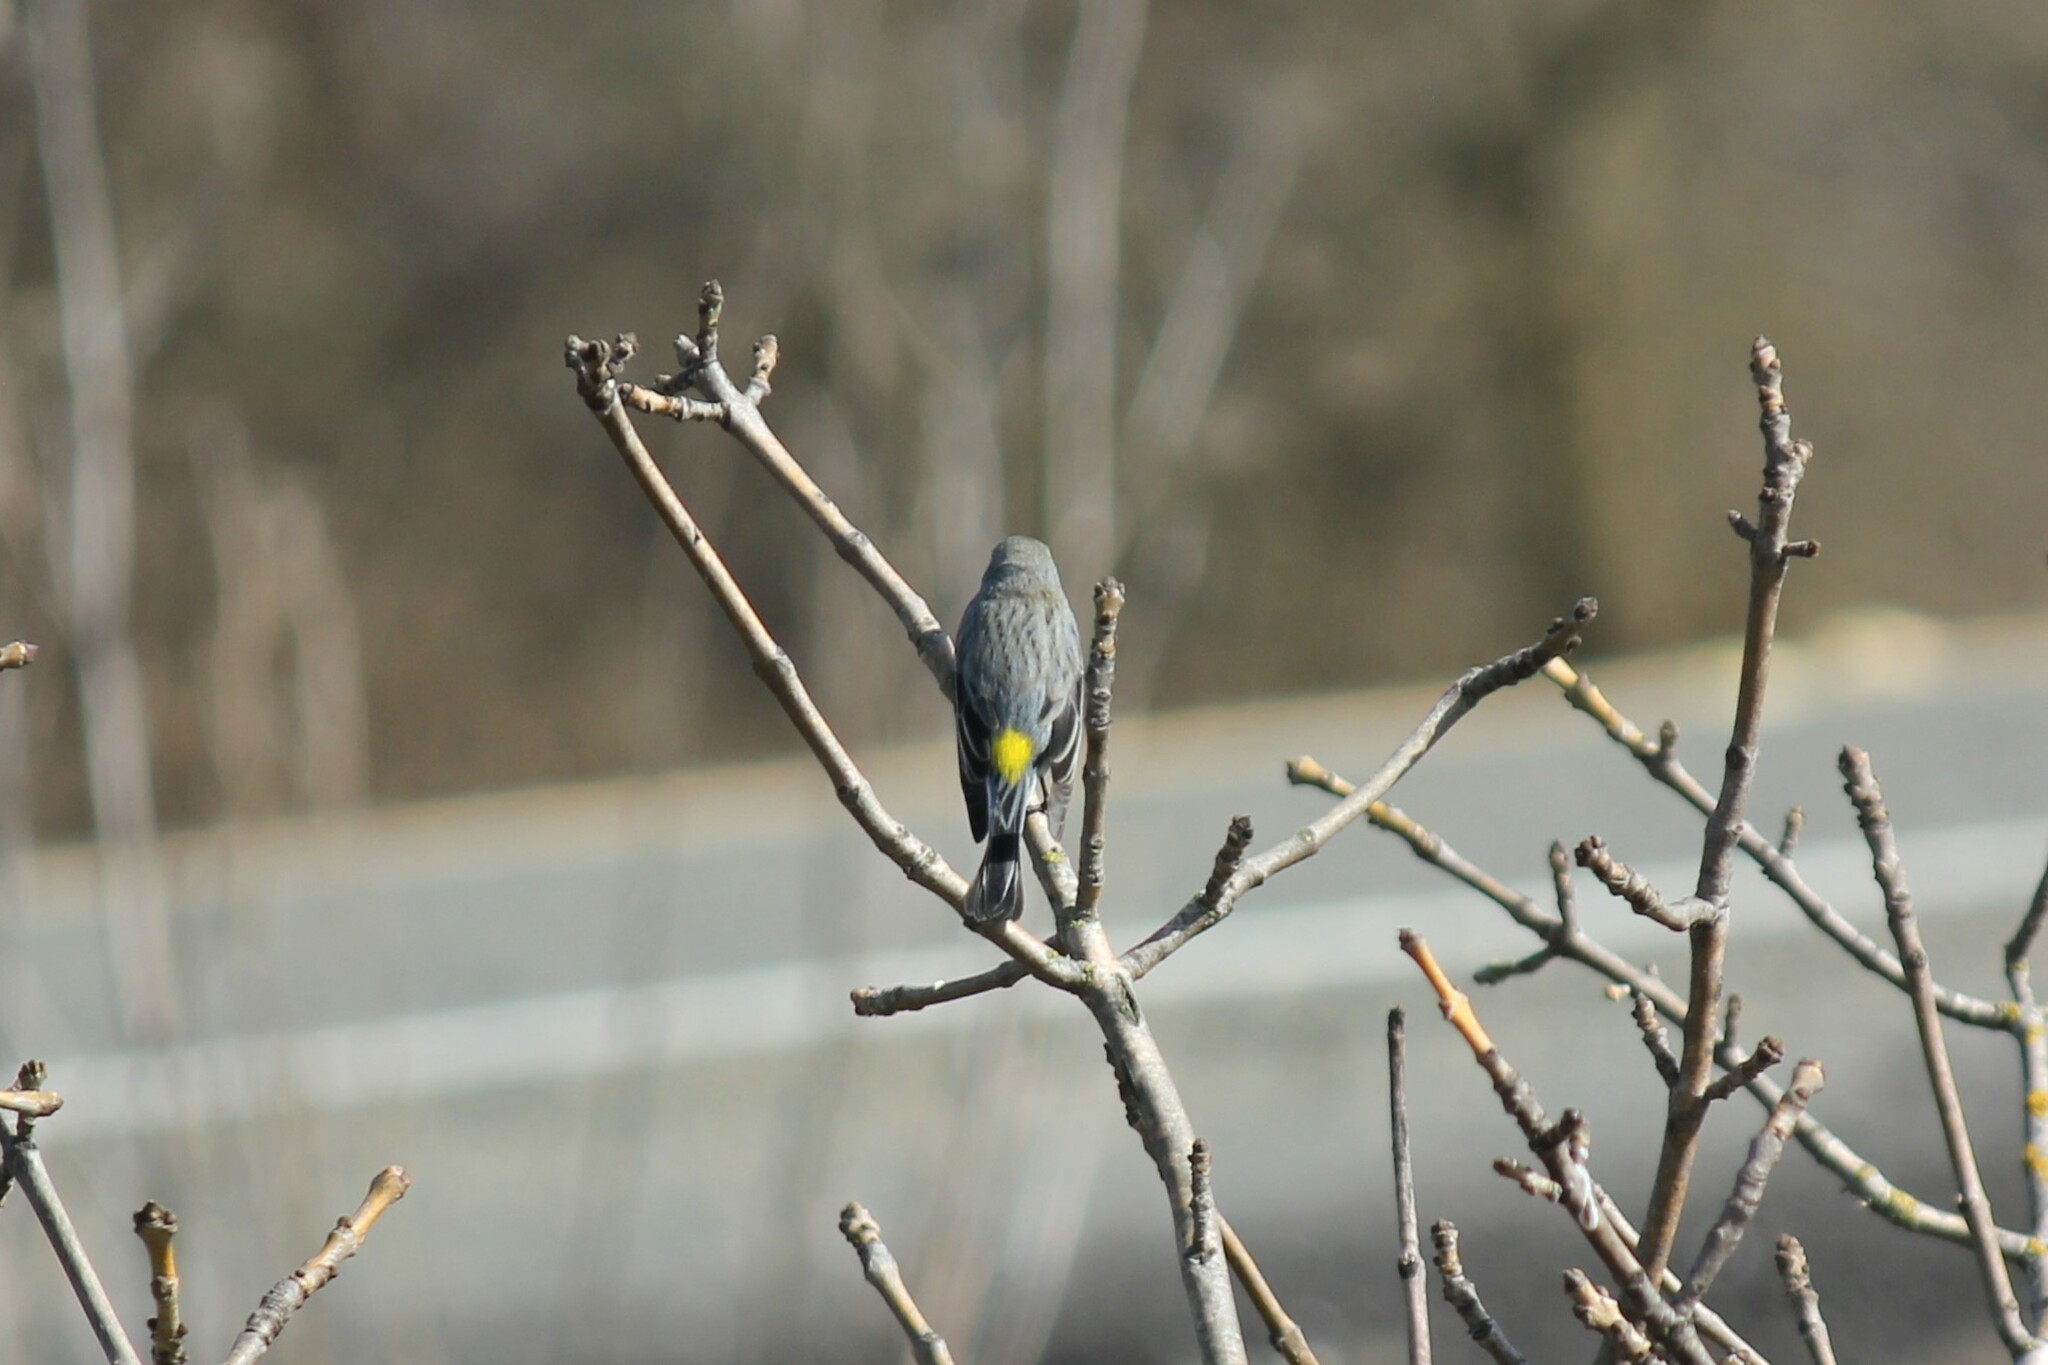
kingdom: Animalia
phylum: Chordata
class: Aves
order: Passeriformes
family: Parulidae
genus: Setophaga
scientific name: Setophaga coronata
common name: Myrtle warbler
